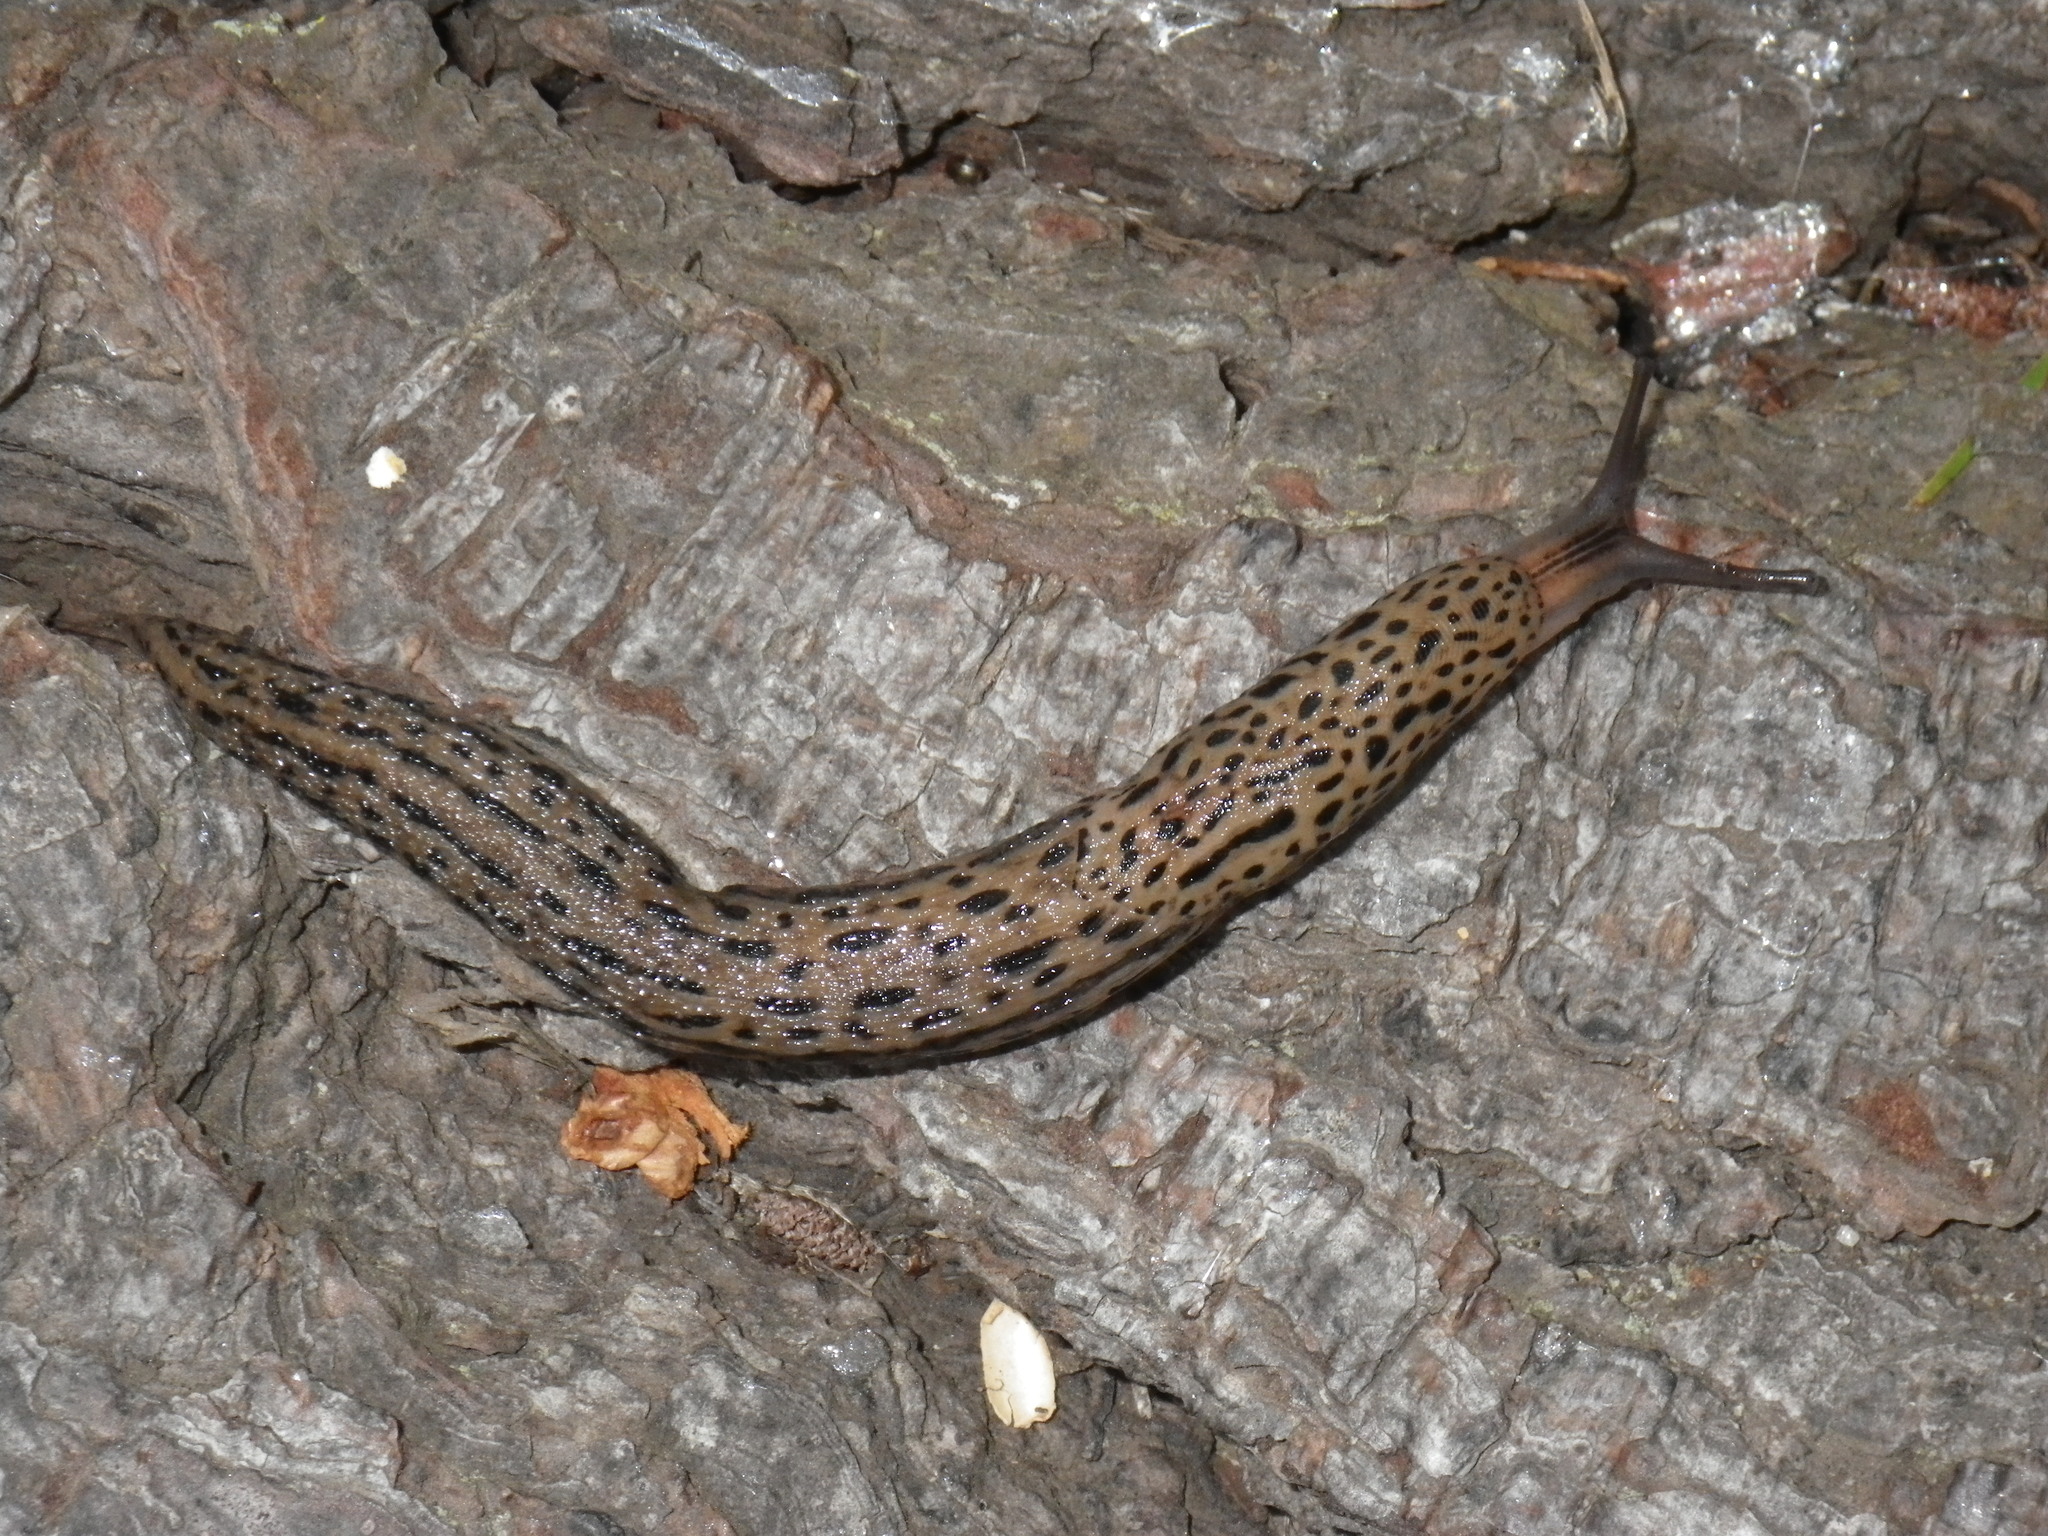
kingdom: Animalia
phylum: Mollusca
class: Gastropoda
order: Stylommatophora
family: Limacidae
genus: Limax
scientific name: Limax maximus
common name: Great grey slug
